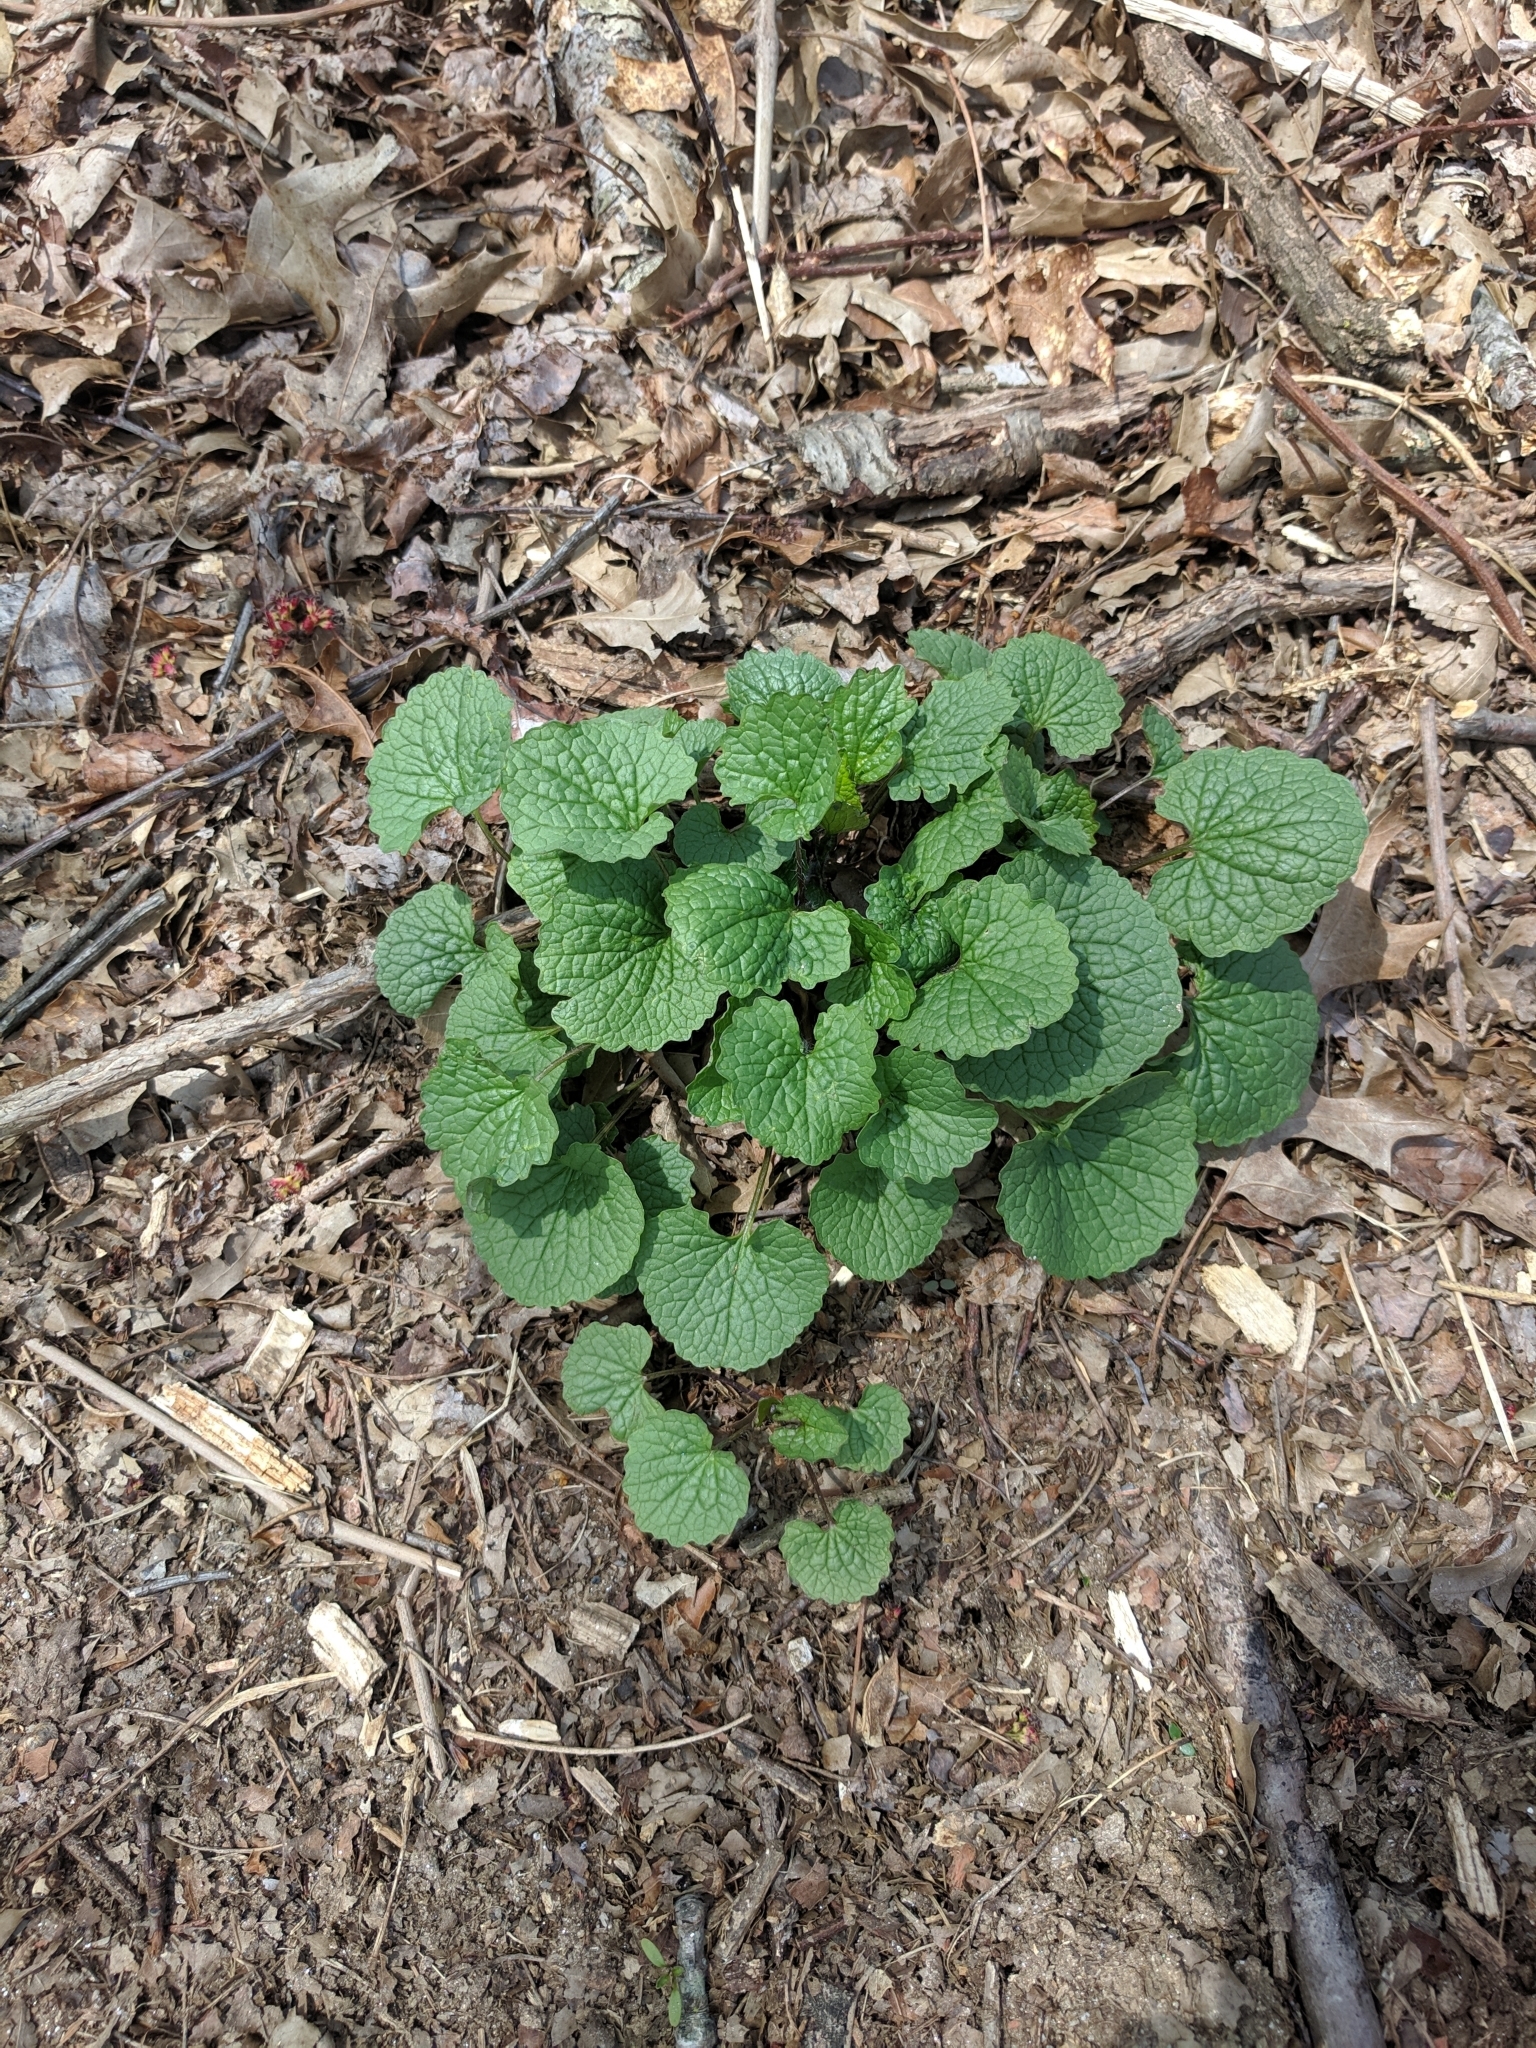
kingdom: Plantae
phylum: Tracheophyta
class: Magnoliopsida
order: Brassicales
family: Brassicaceae
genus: Alliaria
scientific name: Alliaria petiolata
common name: Garlic mustard
